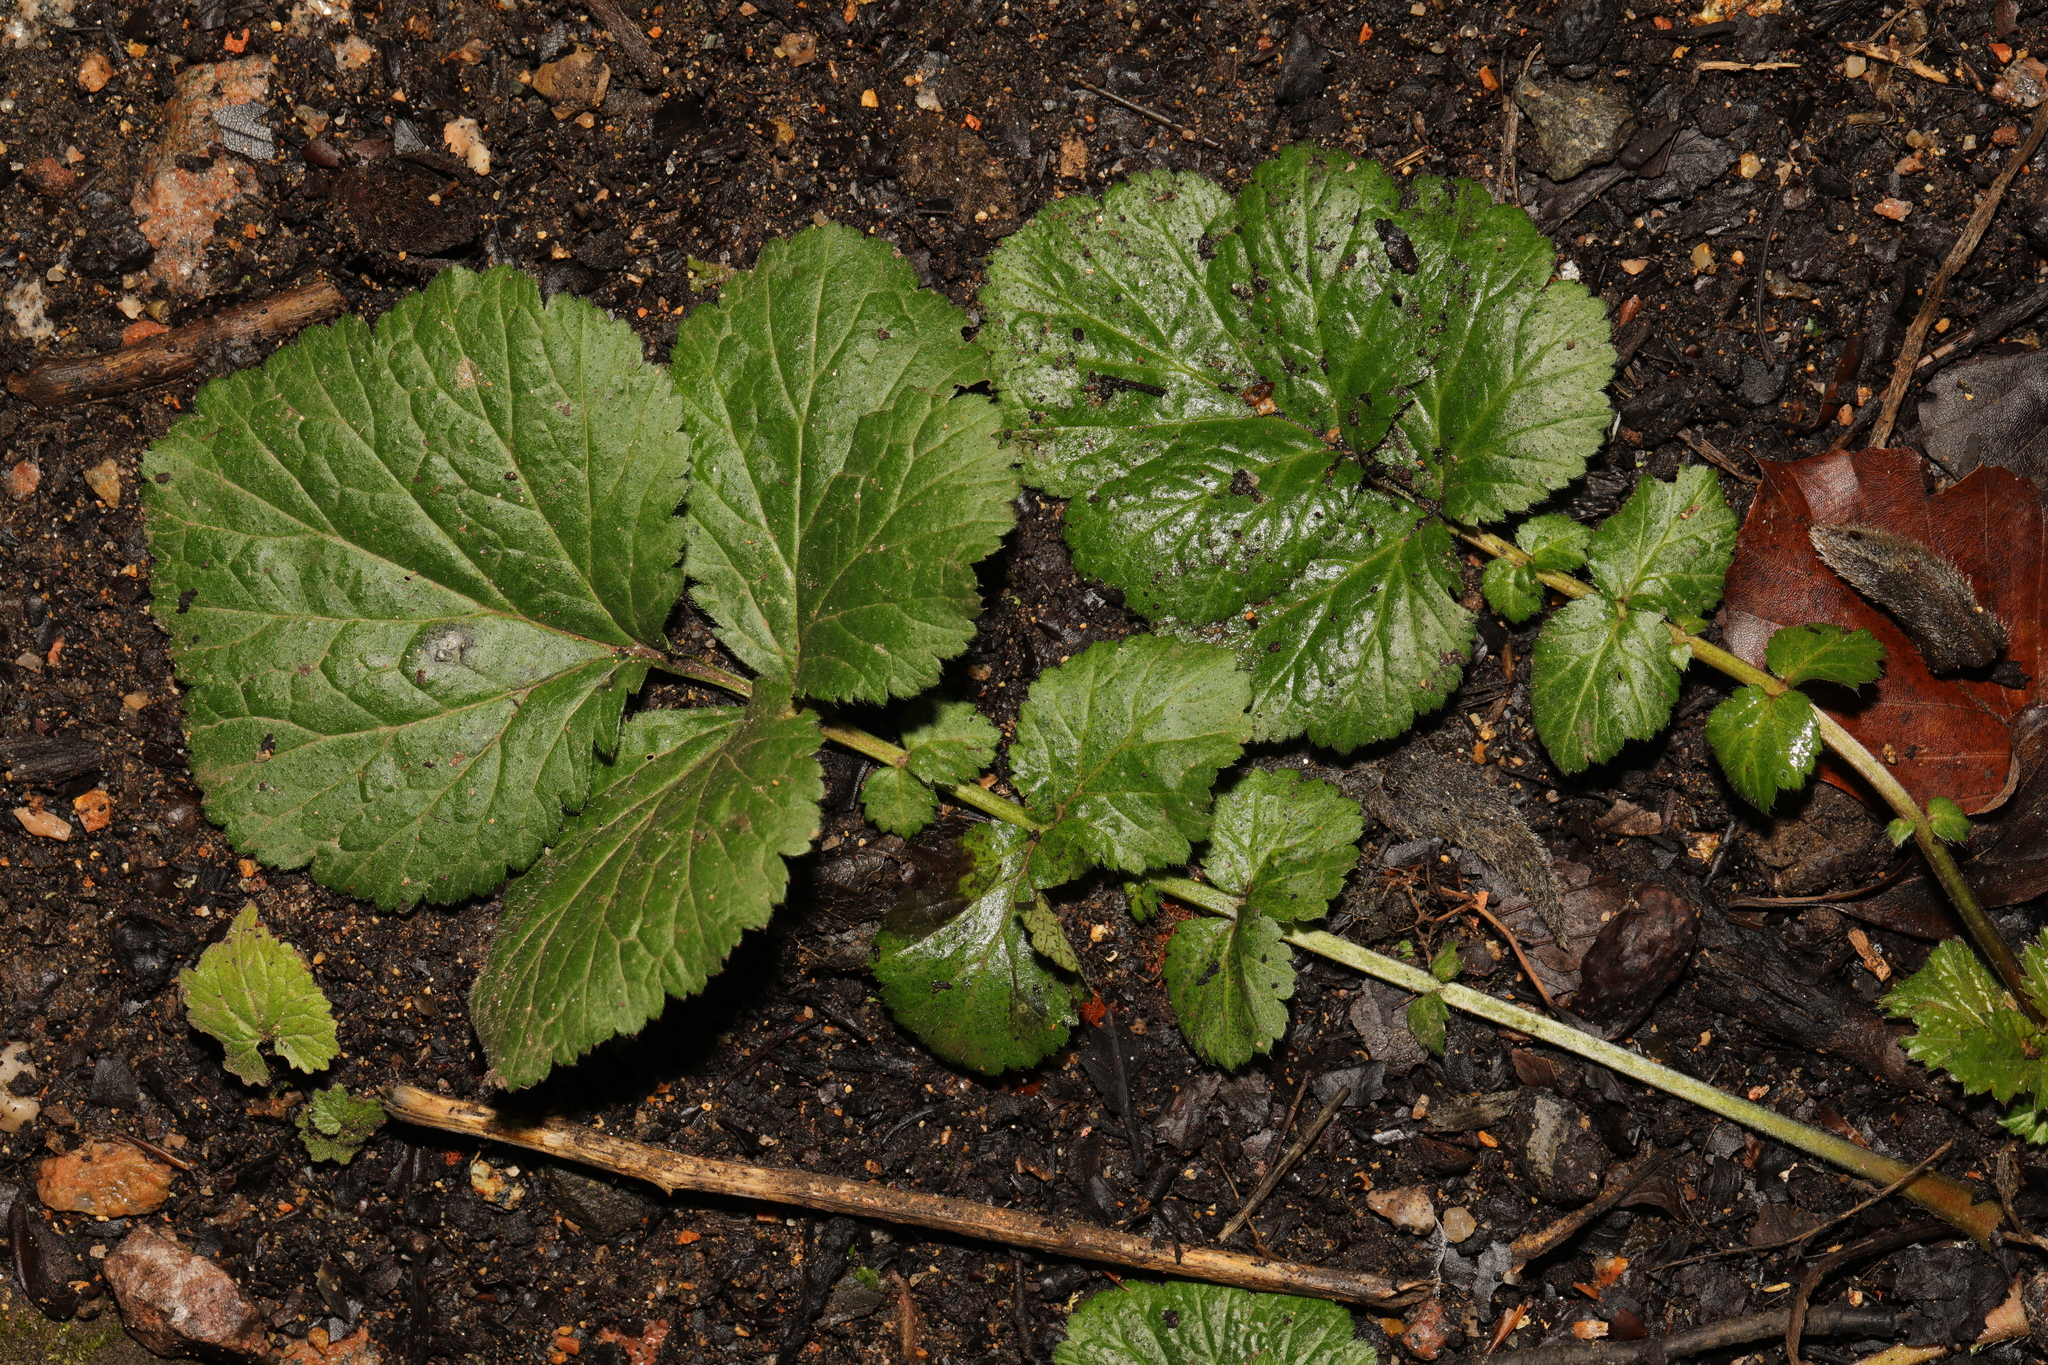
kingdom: Plantae
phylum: Tracheophyta
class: Magnoliopsida
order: Rosales
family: Rosaceae
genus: Geum
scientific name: Geum urbanum
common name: Wood avens
